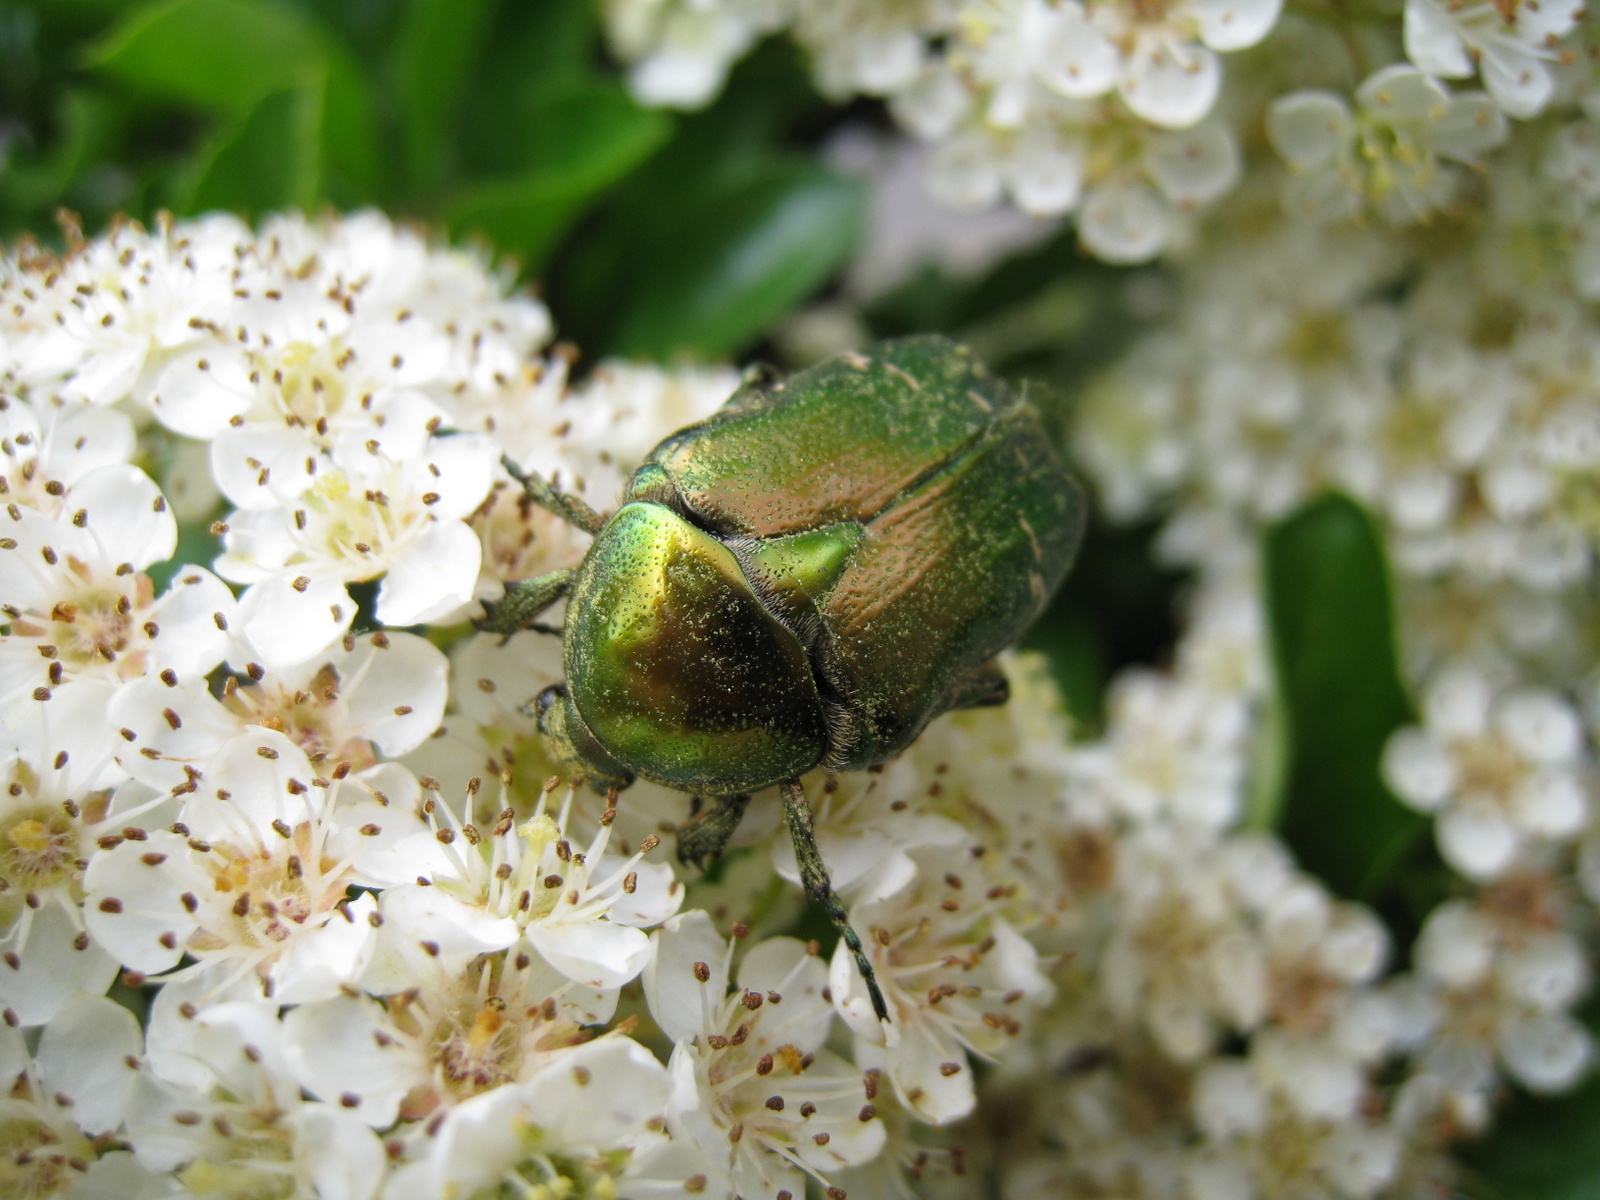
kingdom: Animalia
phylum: Arthropoda
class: Insecta
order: Coleoptera
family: Scarabaeidae
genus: Cetonia
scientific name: Cetonia aurata
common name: Rose chafer
